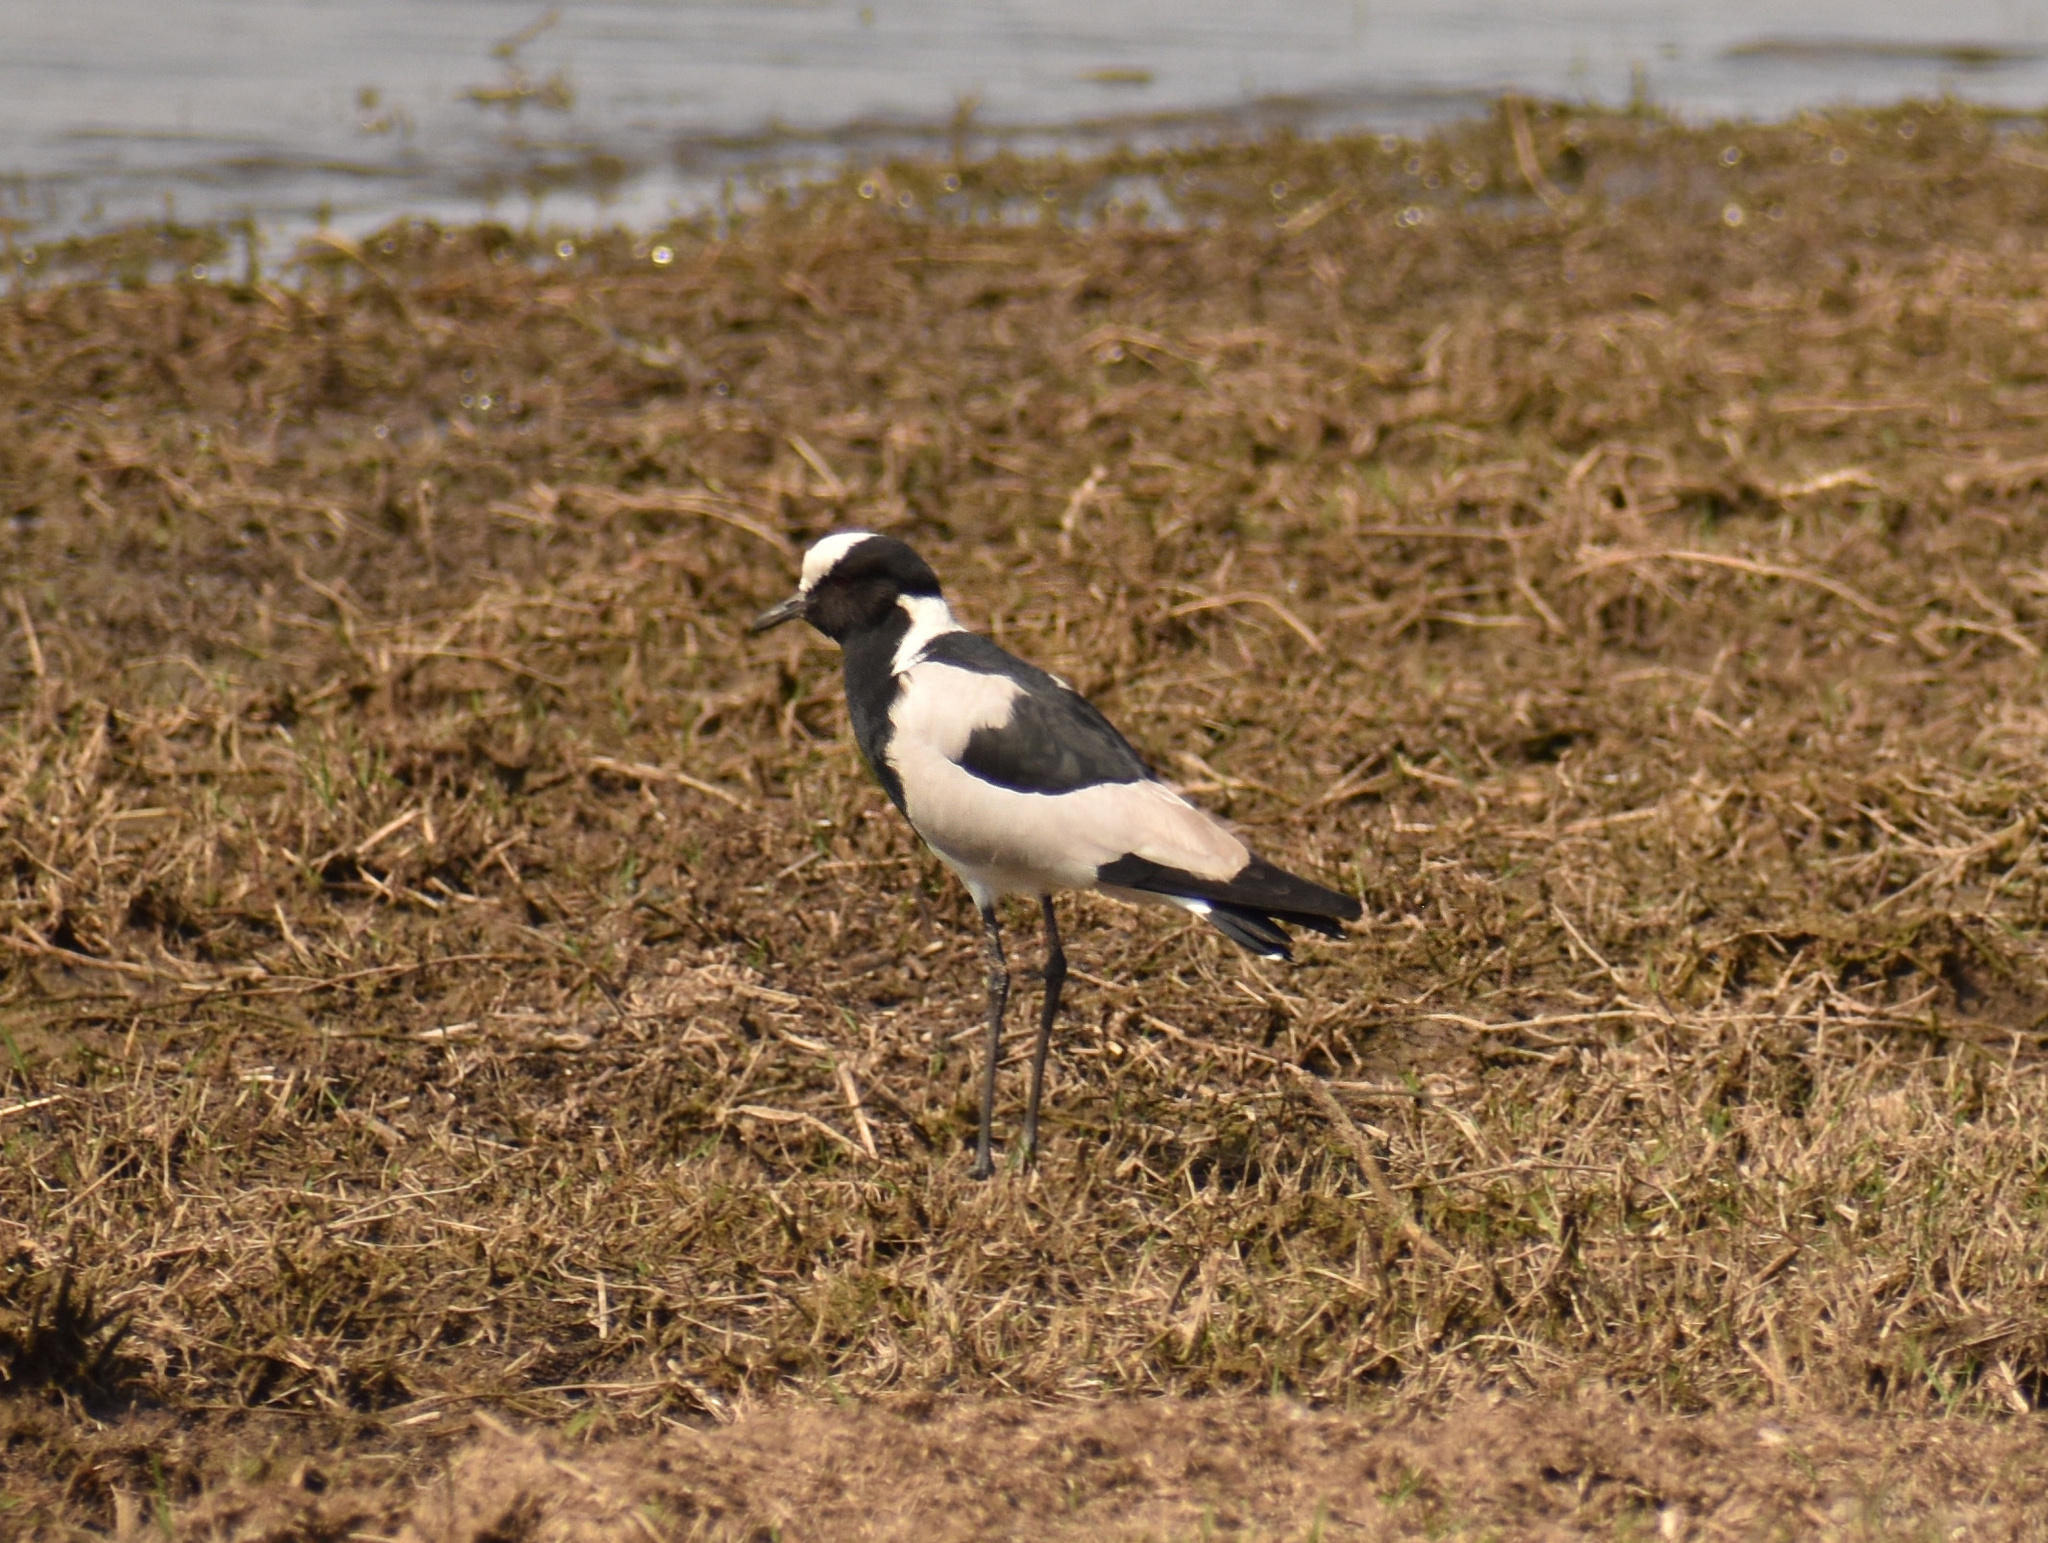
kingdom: Animalia
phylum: Chordata
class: Aves
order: Charadriiformes
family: Charadriidae
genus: Vanellus
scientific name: Vanellus armatus
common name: Blacksmith lapwing
